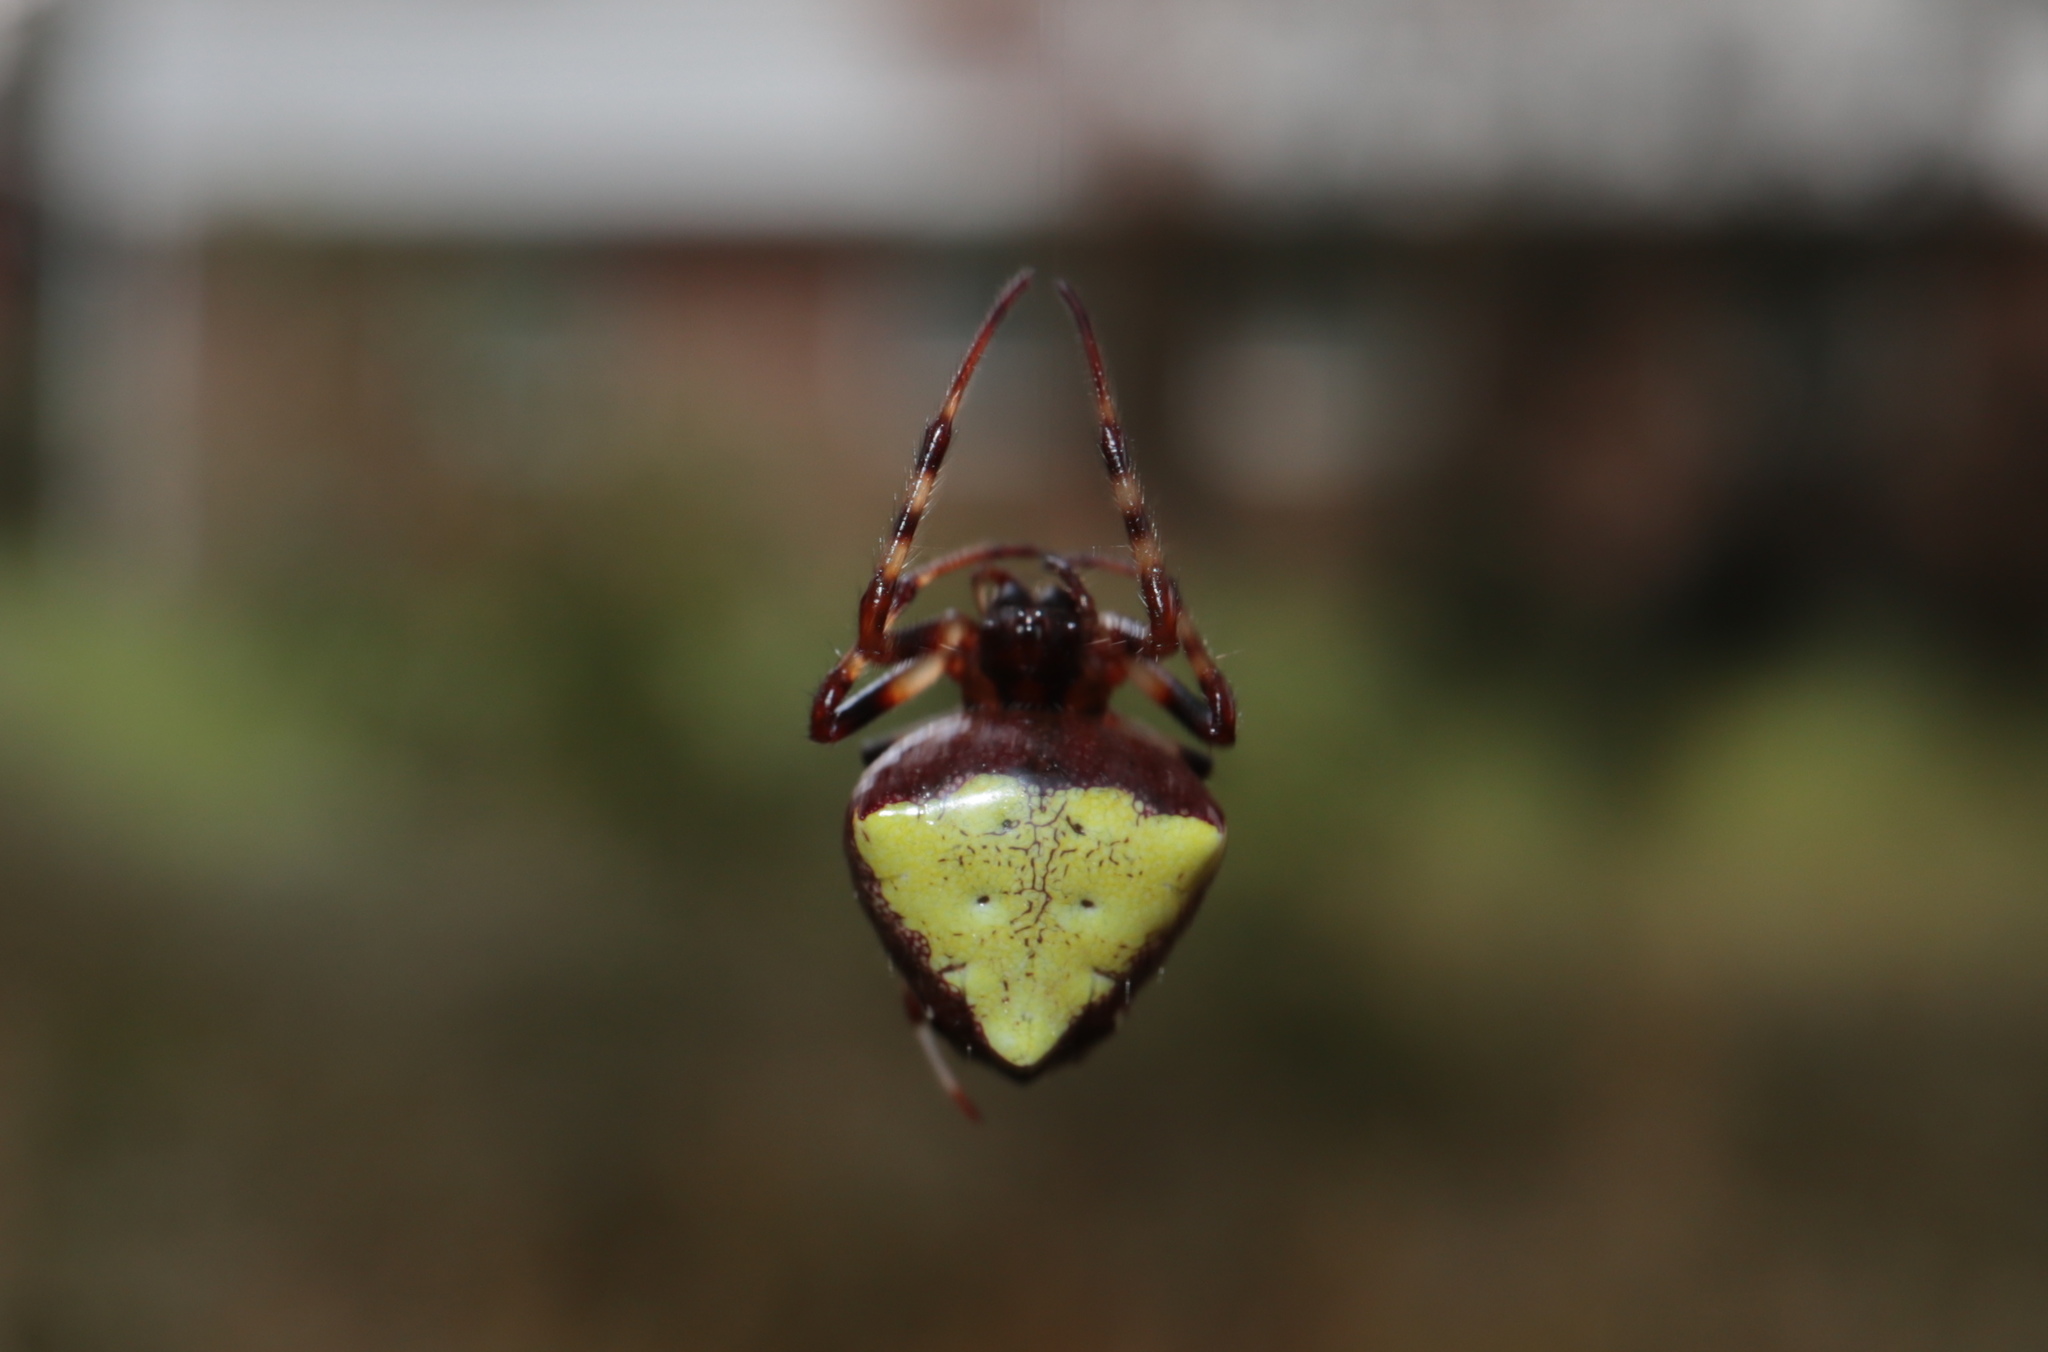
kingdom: Animalia
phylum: Arthropoda
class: Arachnida
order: Araneae
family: Araneidae
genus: Verrucosa
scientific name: Verrucosa arenata
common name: Orb weavers
